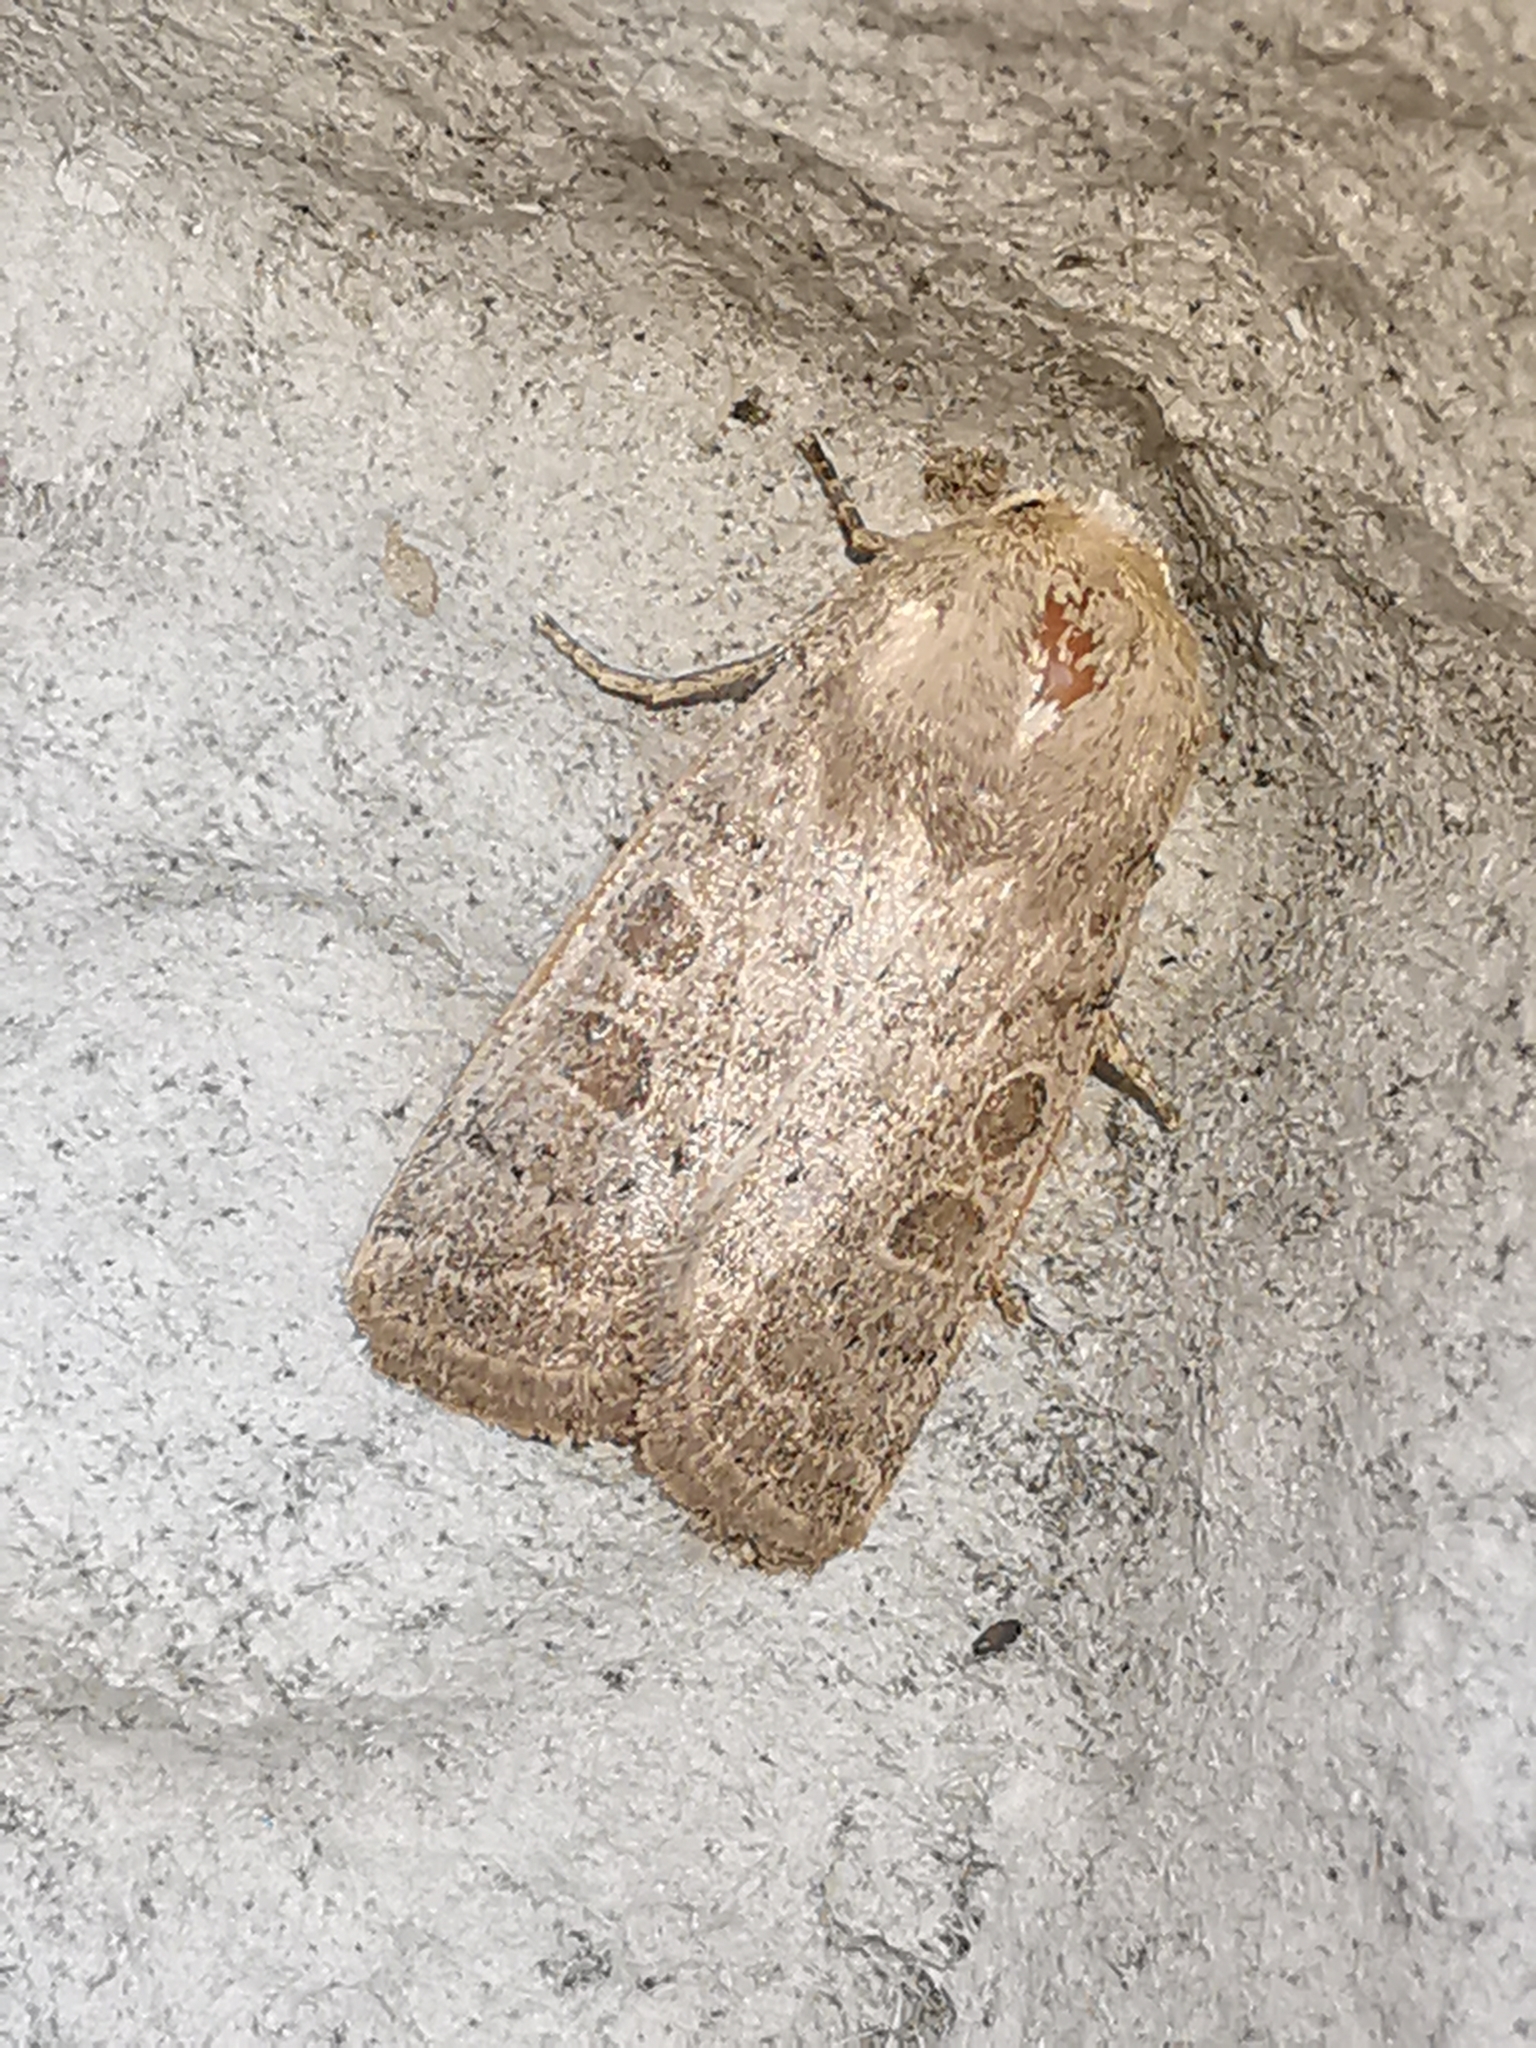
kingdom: Animalia
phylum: Arthropoda
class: Insecta
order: Lepidoptera
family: Noctuidae
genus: Hoplodrina
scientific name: Hoplodrina ambigua
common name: Vine's rustic
